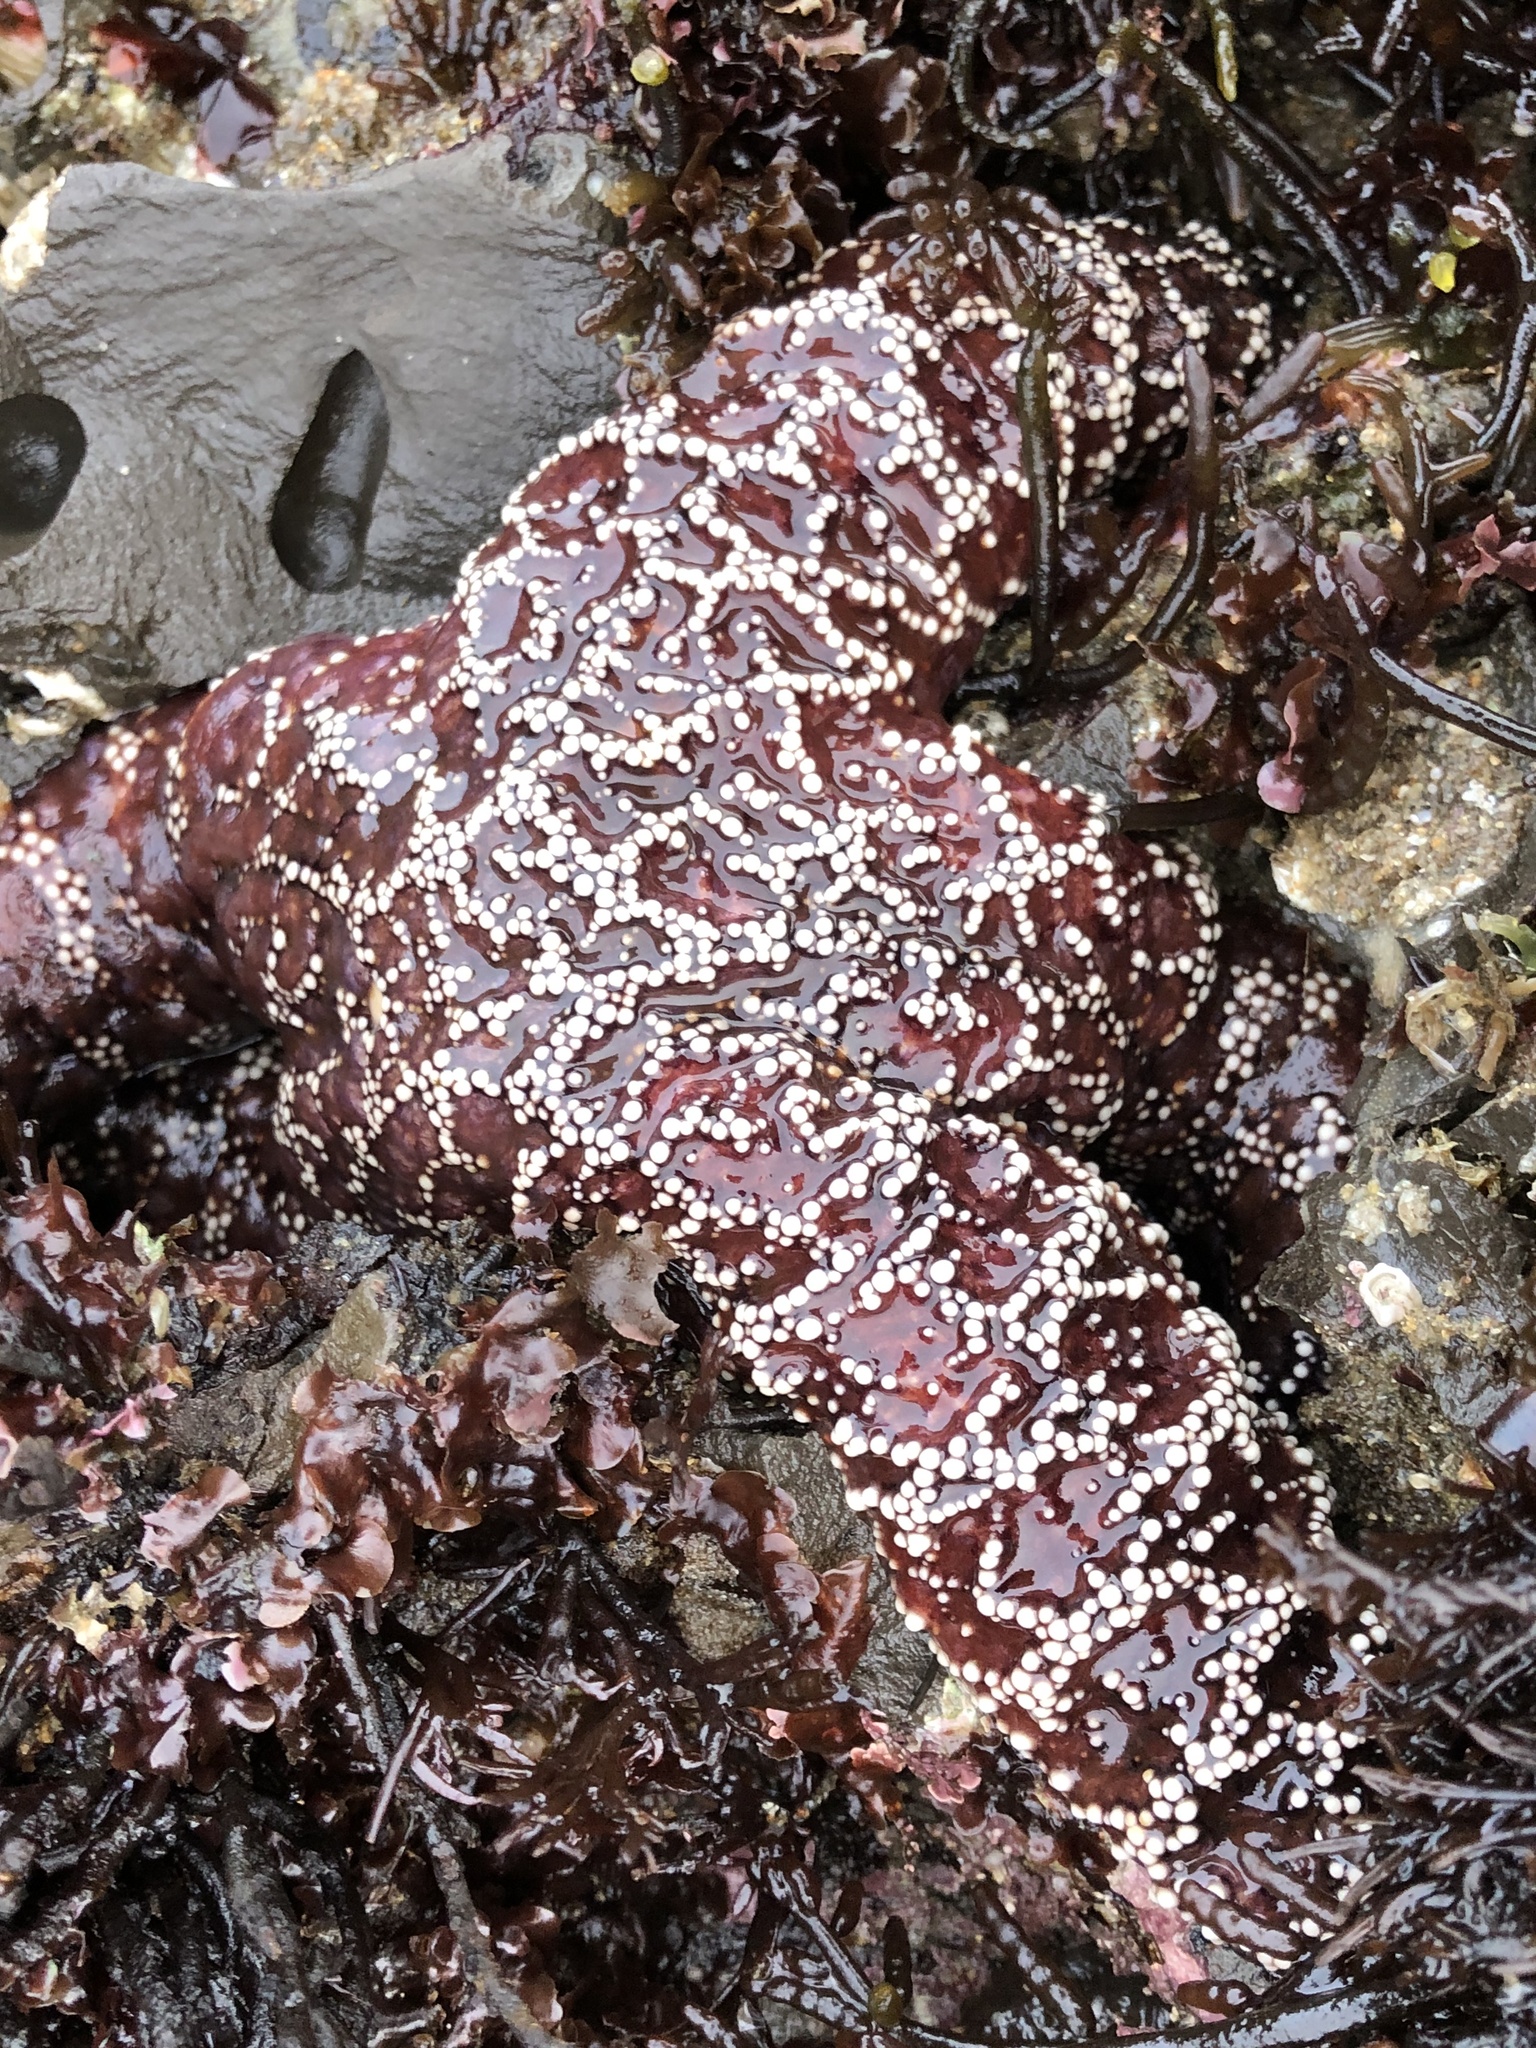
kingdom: Animalia
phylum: Echinodermata
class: Asteroidea
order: Forcipulatida
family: Asteriidae
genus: Pisaster
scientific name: Pisaster ochraceus
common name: Ochre stars
